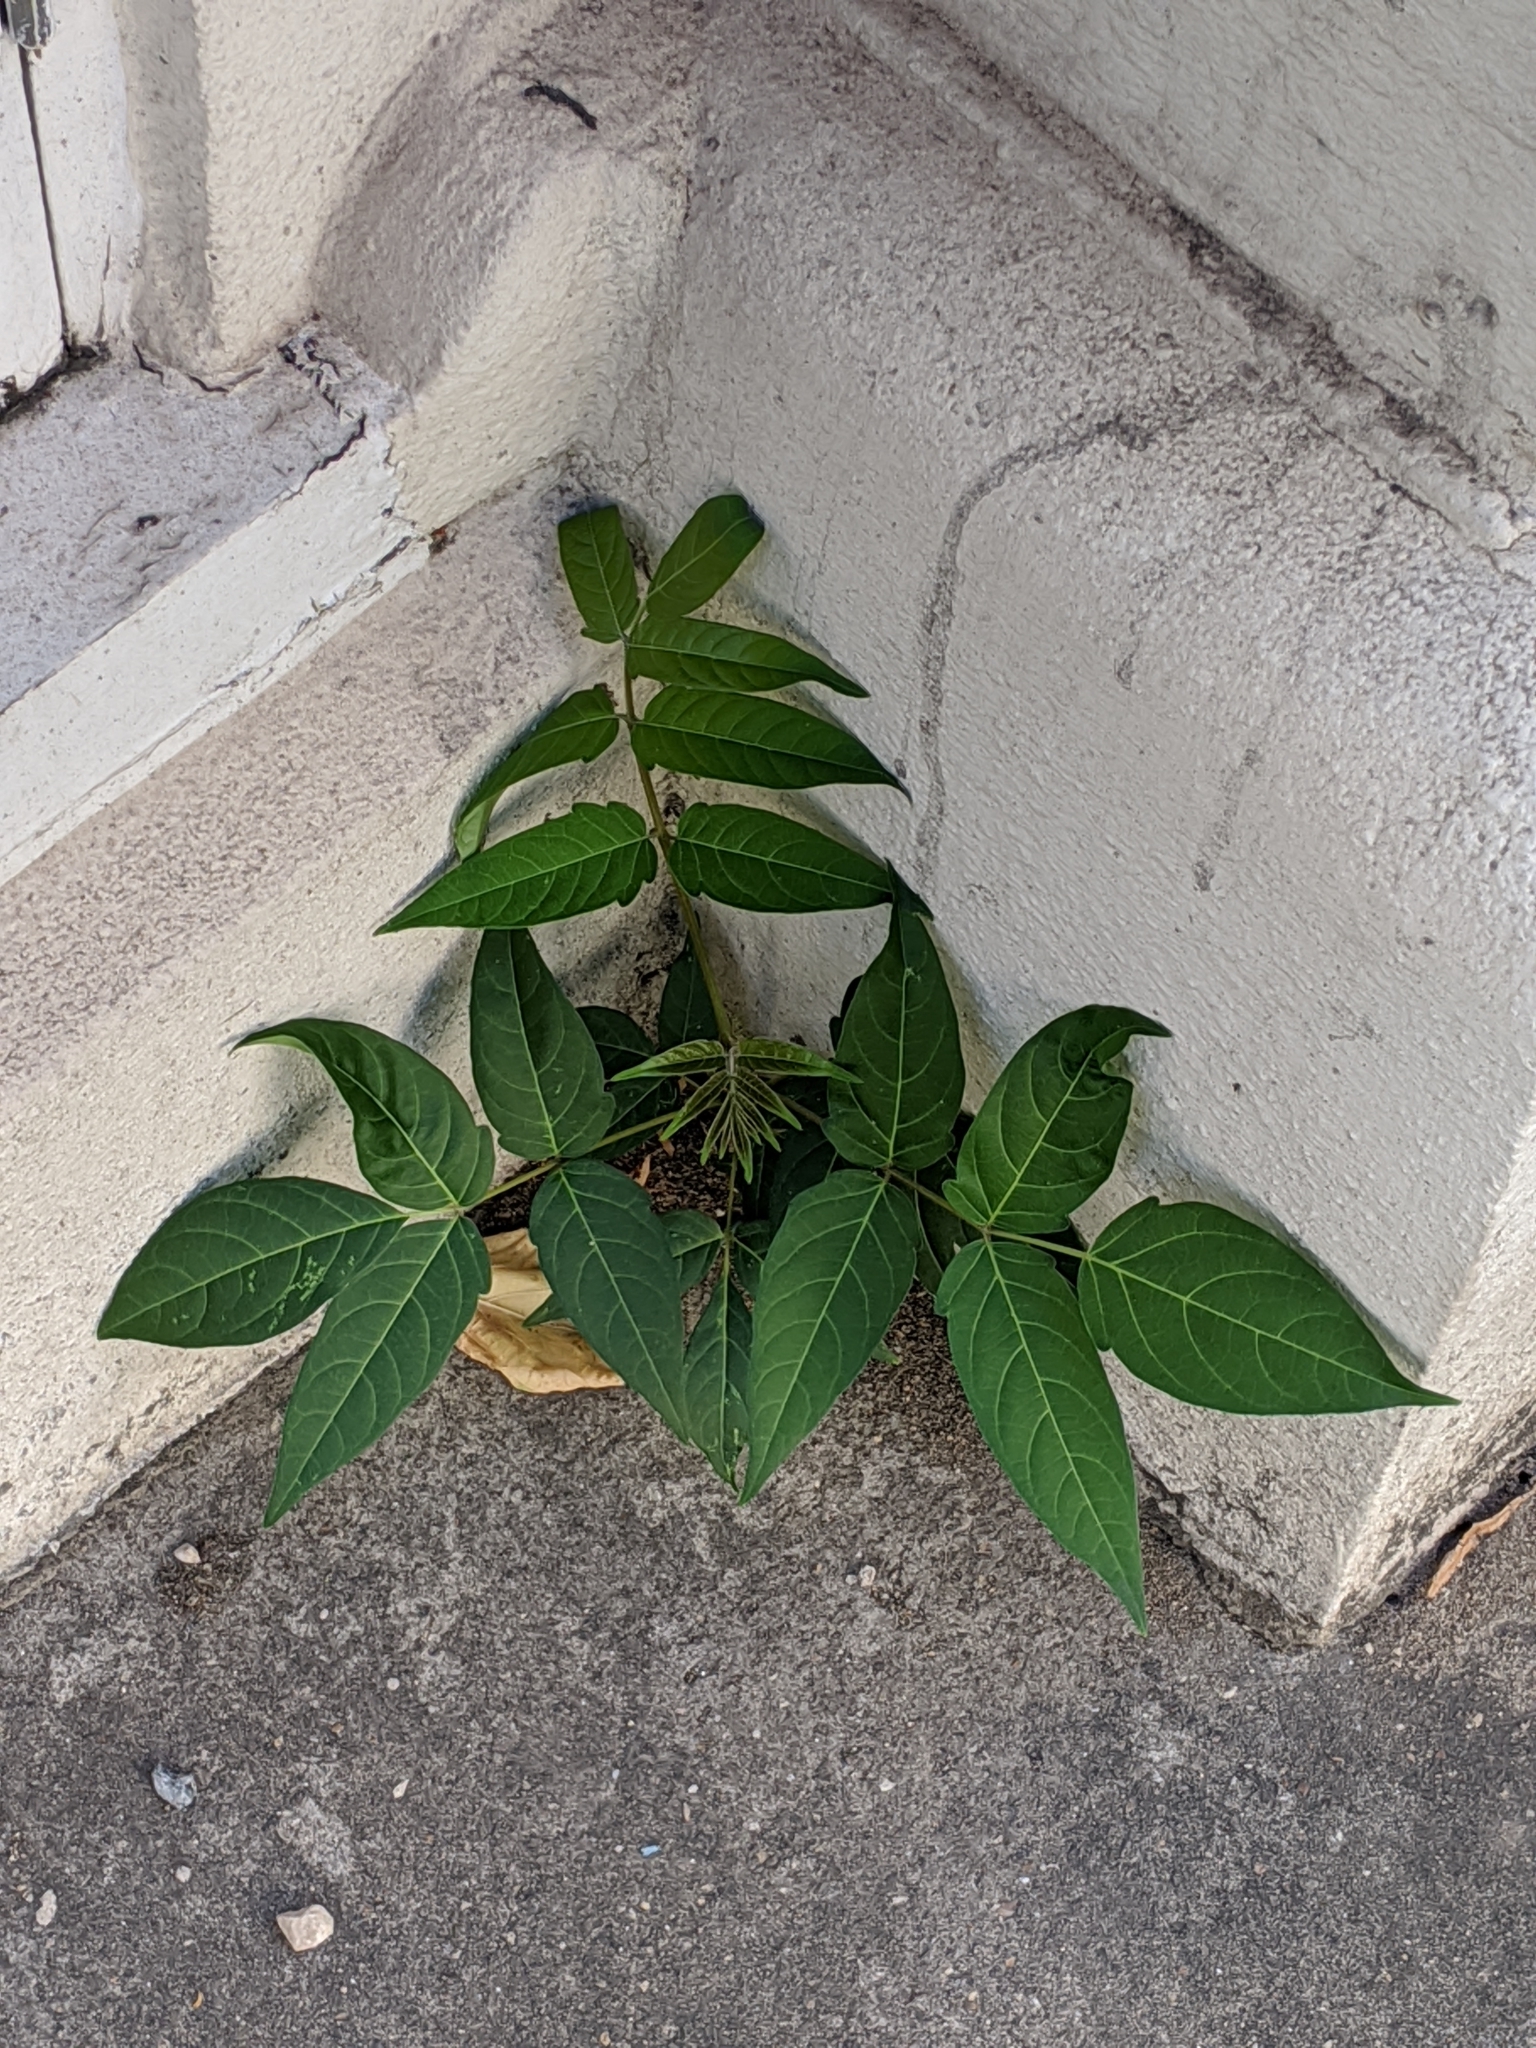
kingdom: Plantae
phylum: Tracheophyta
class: Magnoliopsida
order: Sapindales
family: Simaroubaceae
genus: Ailanthus
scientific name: Ailanthus altissima
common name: Tree-of-heaven
